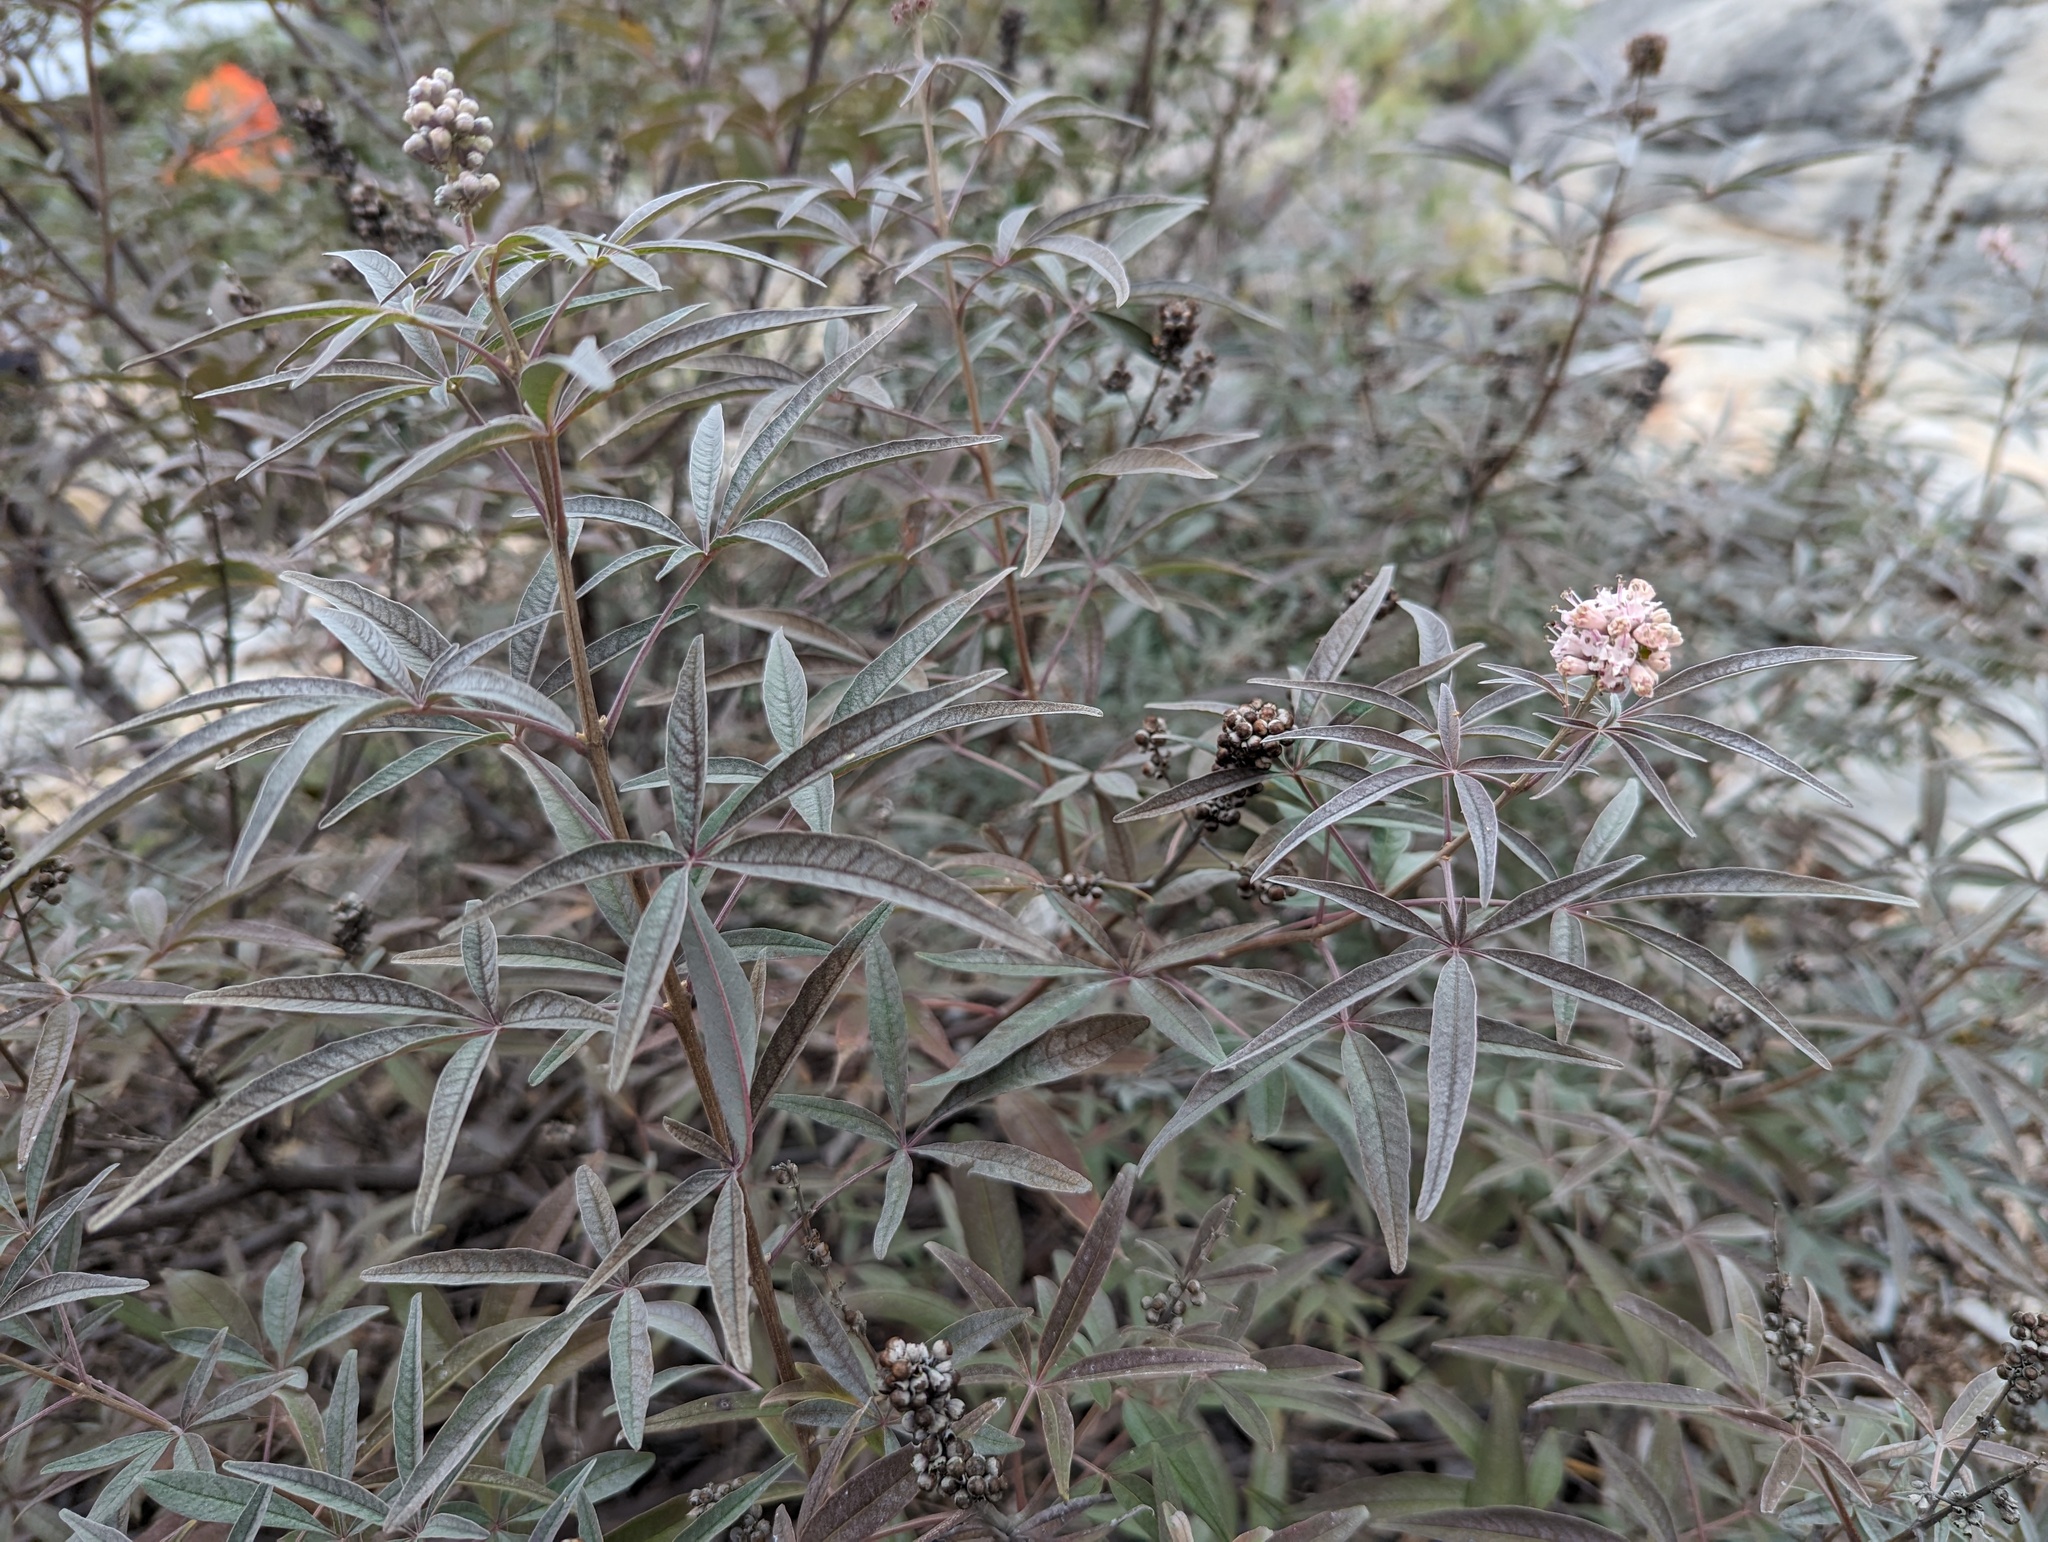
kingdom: Plantae
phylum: Tracheophyta
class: Magnoliopsida
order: Lamiales
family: Lamiaceae
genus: Vitex
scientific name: Vitex agnus-castus
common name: Chasteberry
